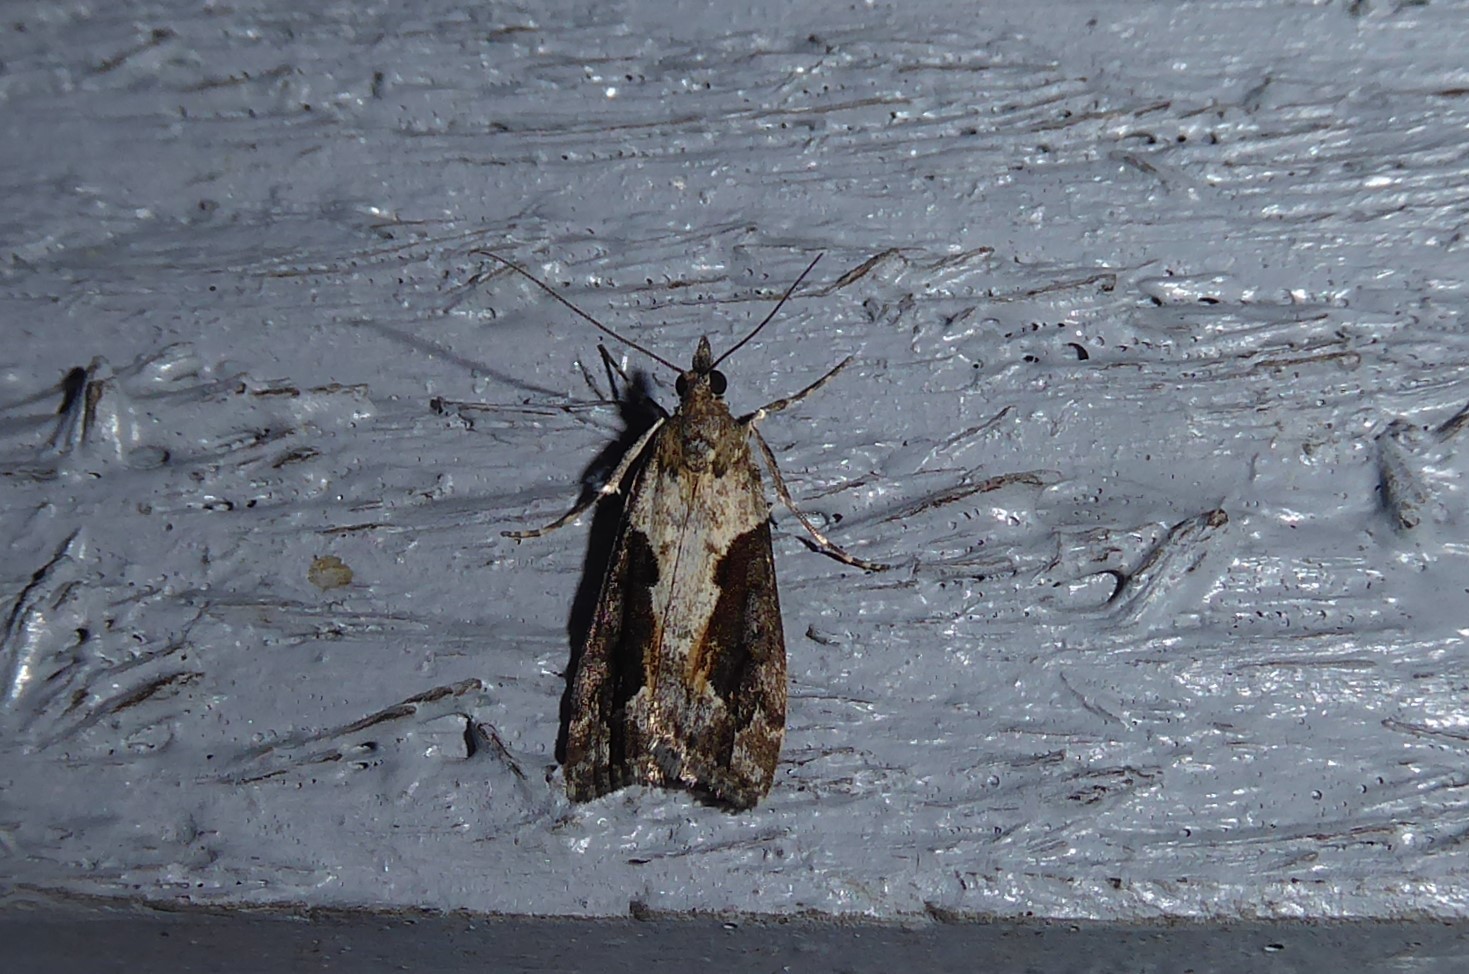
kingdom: Animalia
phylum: Arthropoda
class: Insecta
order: Lepidoptera
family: Crambidae
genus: Eudonia
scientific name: Eudonia submarginalis
